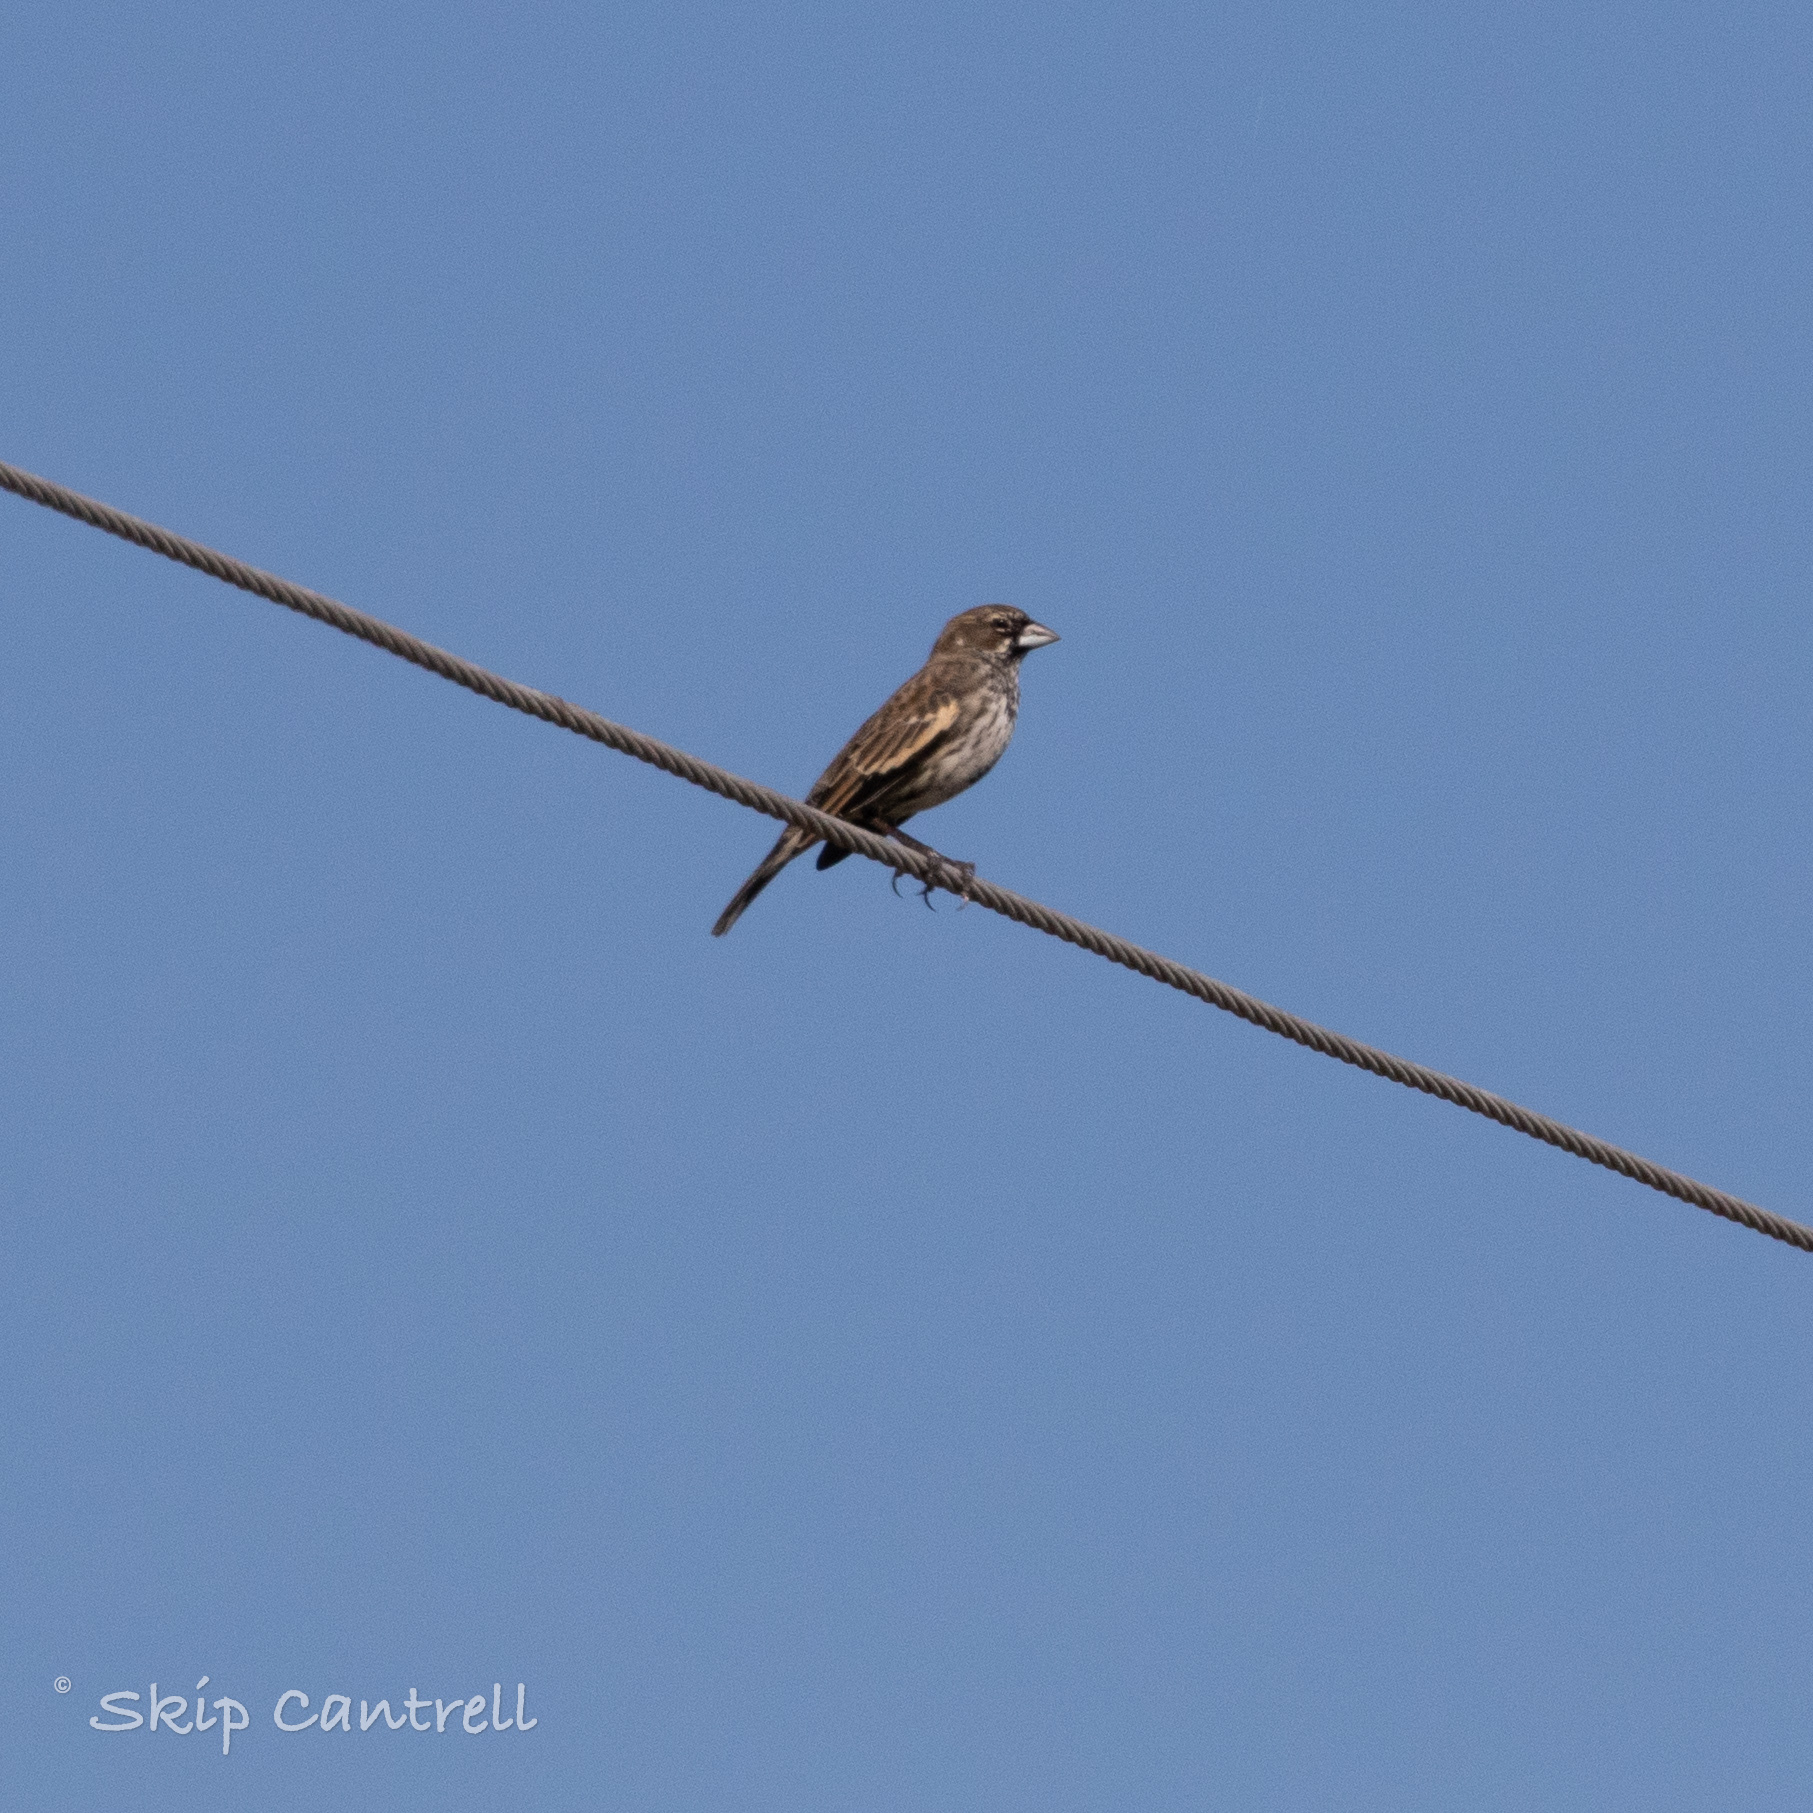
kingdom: Animalia
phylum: Chordata
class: Aves
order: Passeriformes
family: Passerellidae
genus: Calamospiza
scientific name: Calamospiza melanocorys
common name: Lark bunting
